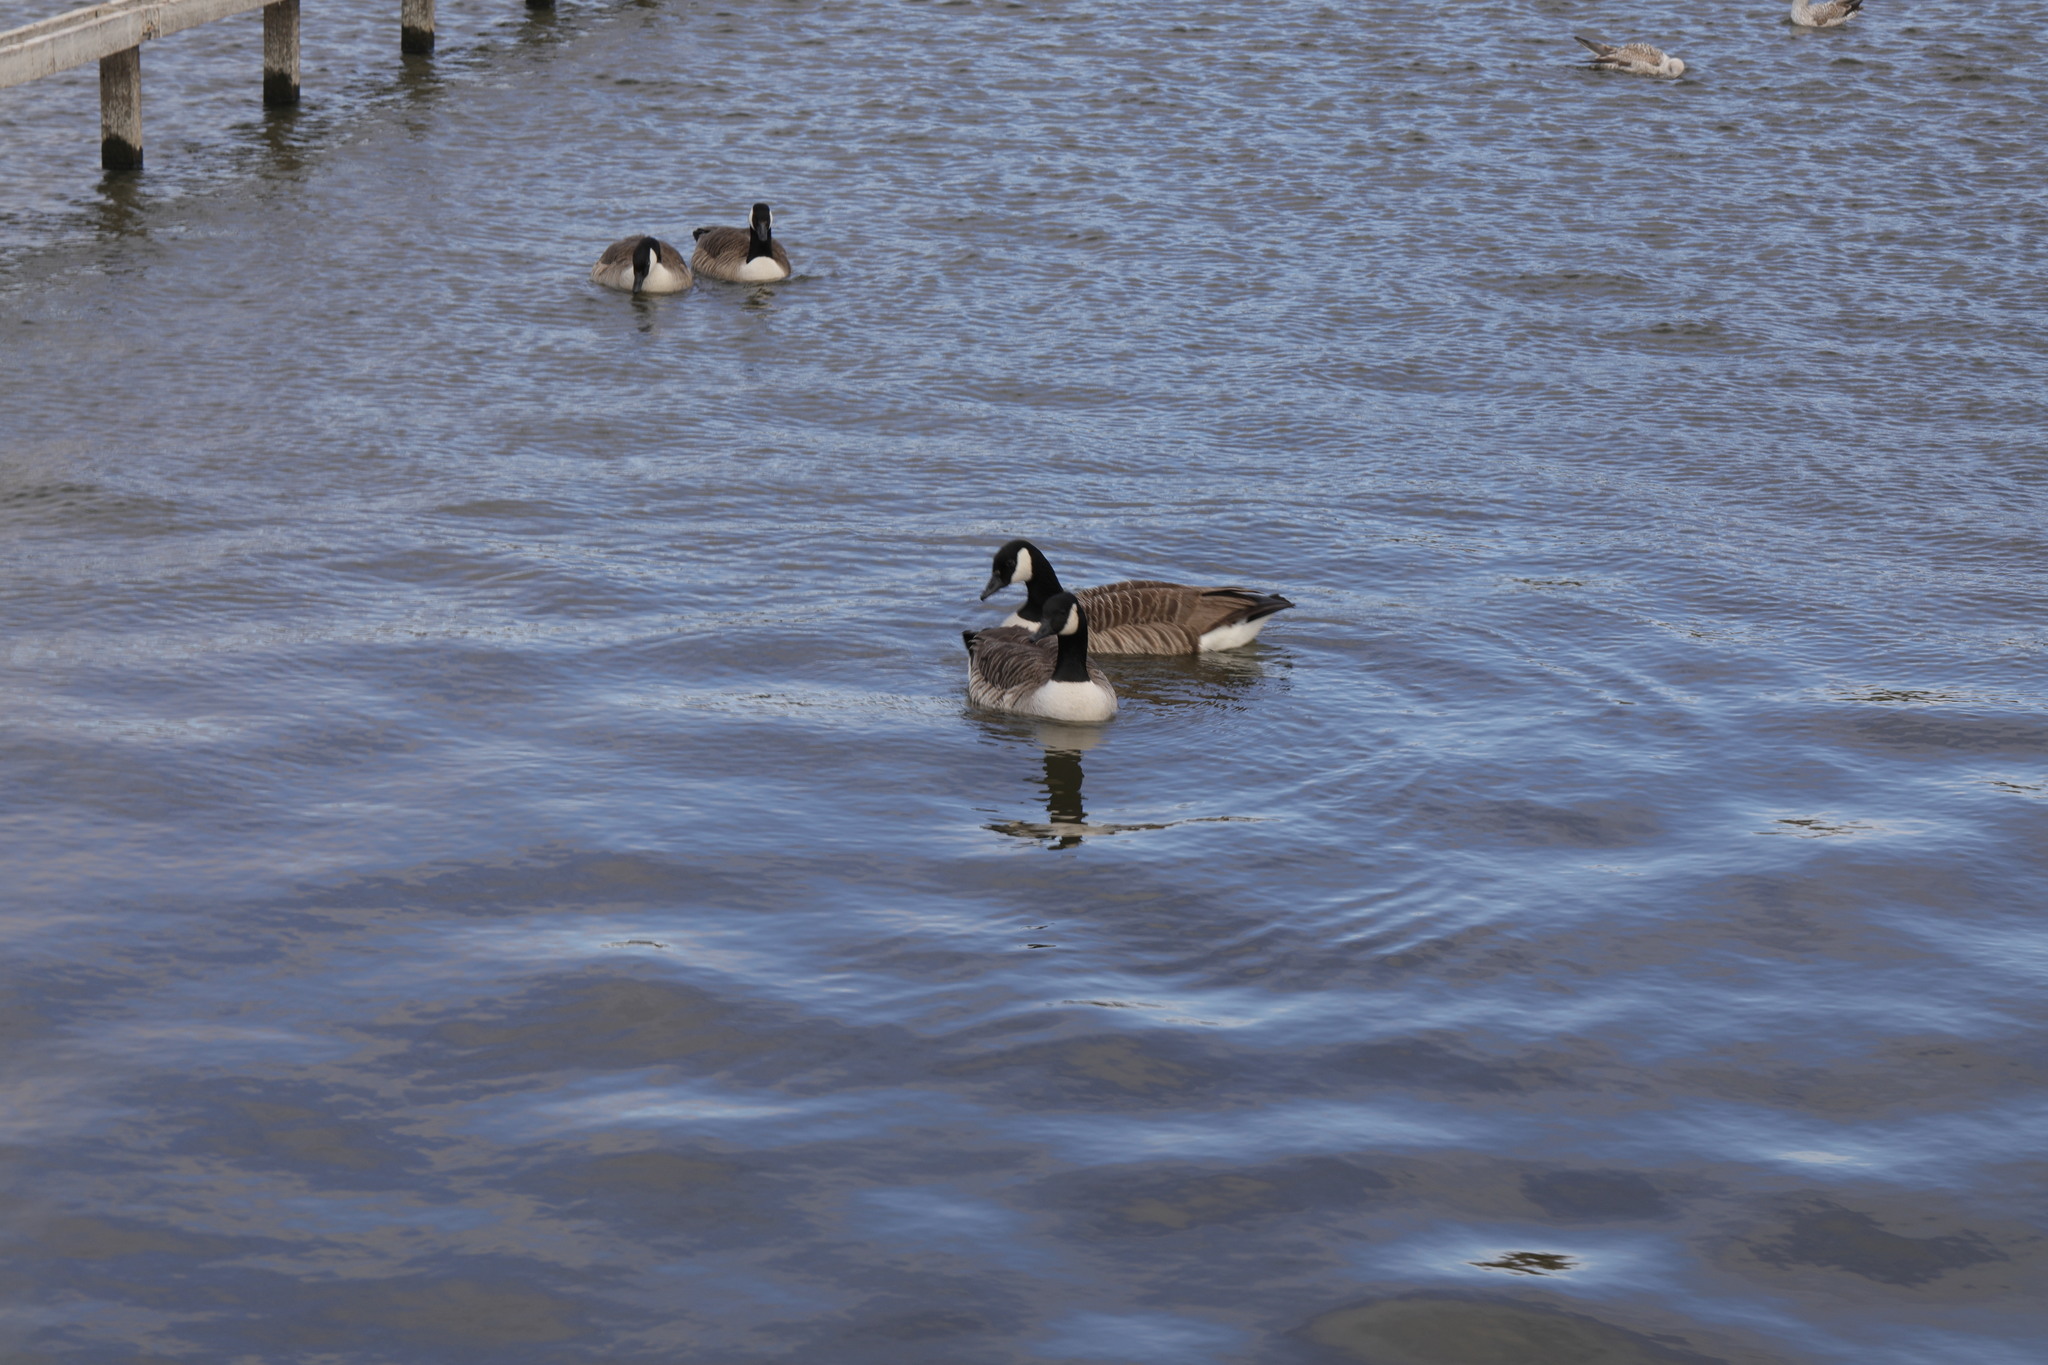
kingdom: Animalia
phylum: Chordata
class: Aves
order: Anseriformes
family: Anatidae
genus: Branta
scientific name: Branta canadensis
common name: Canada goose
